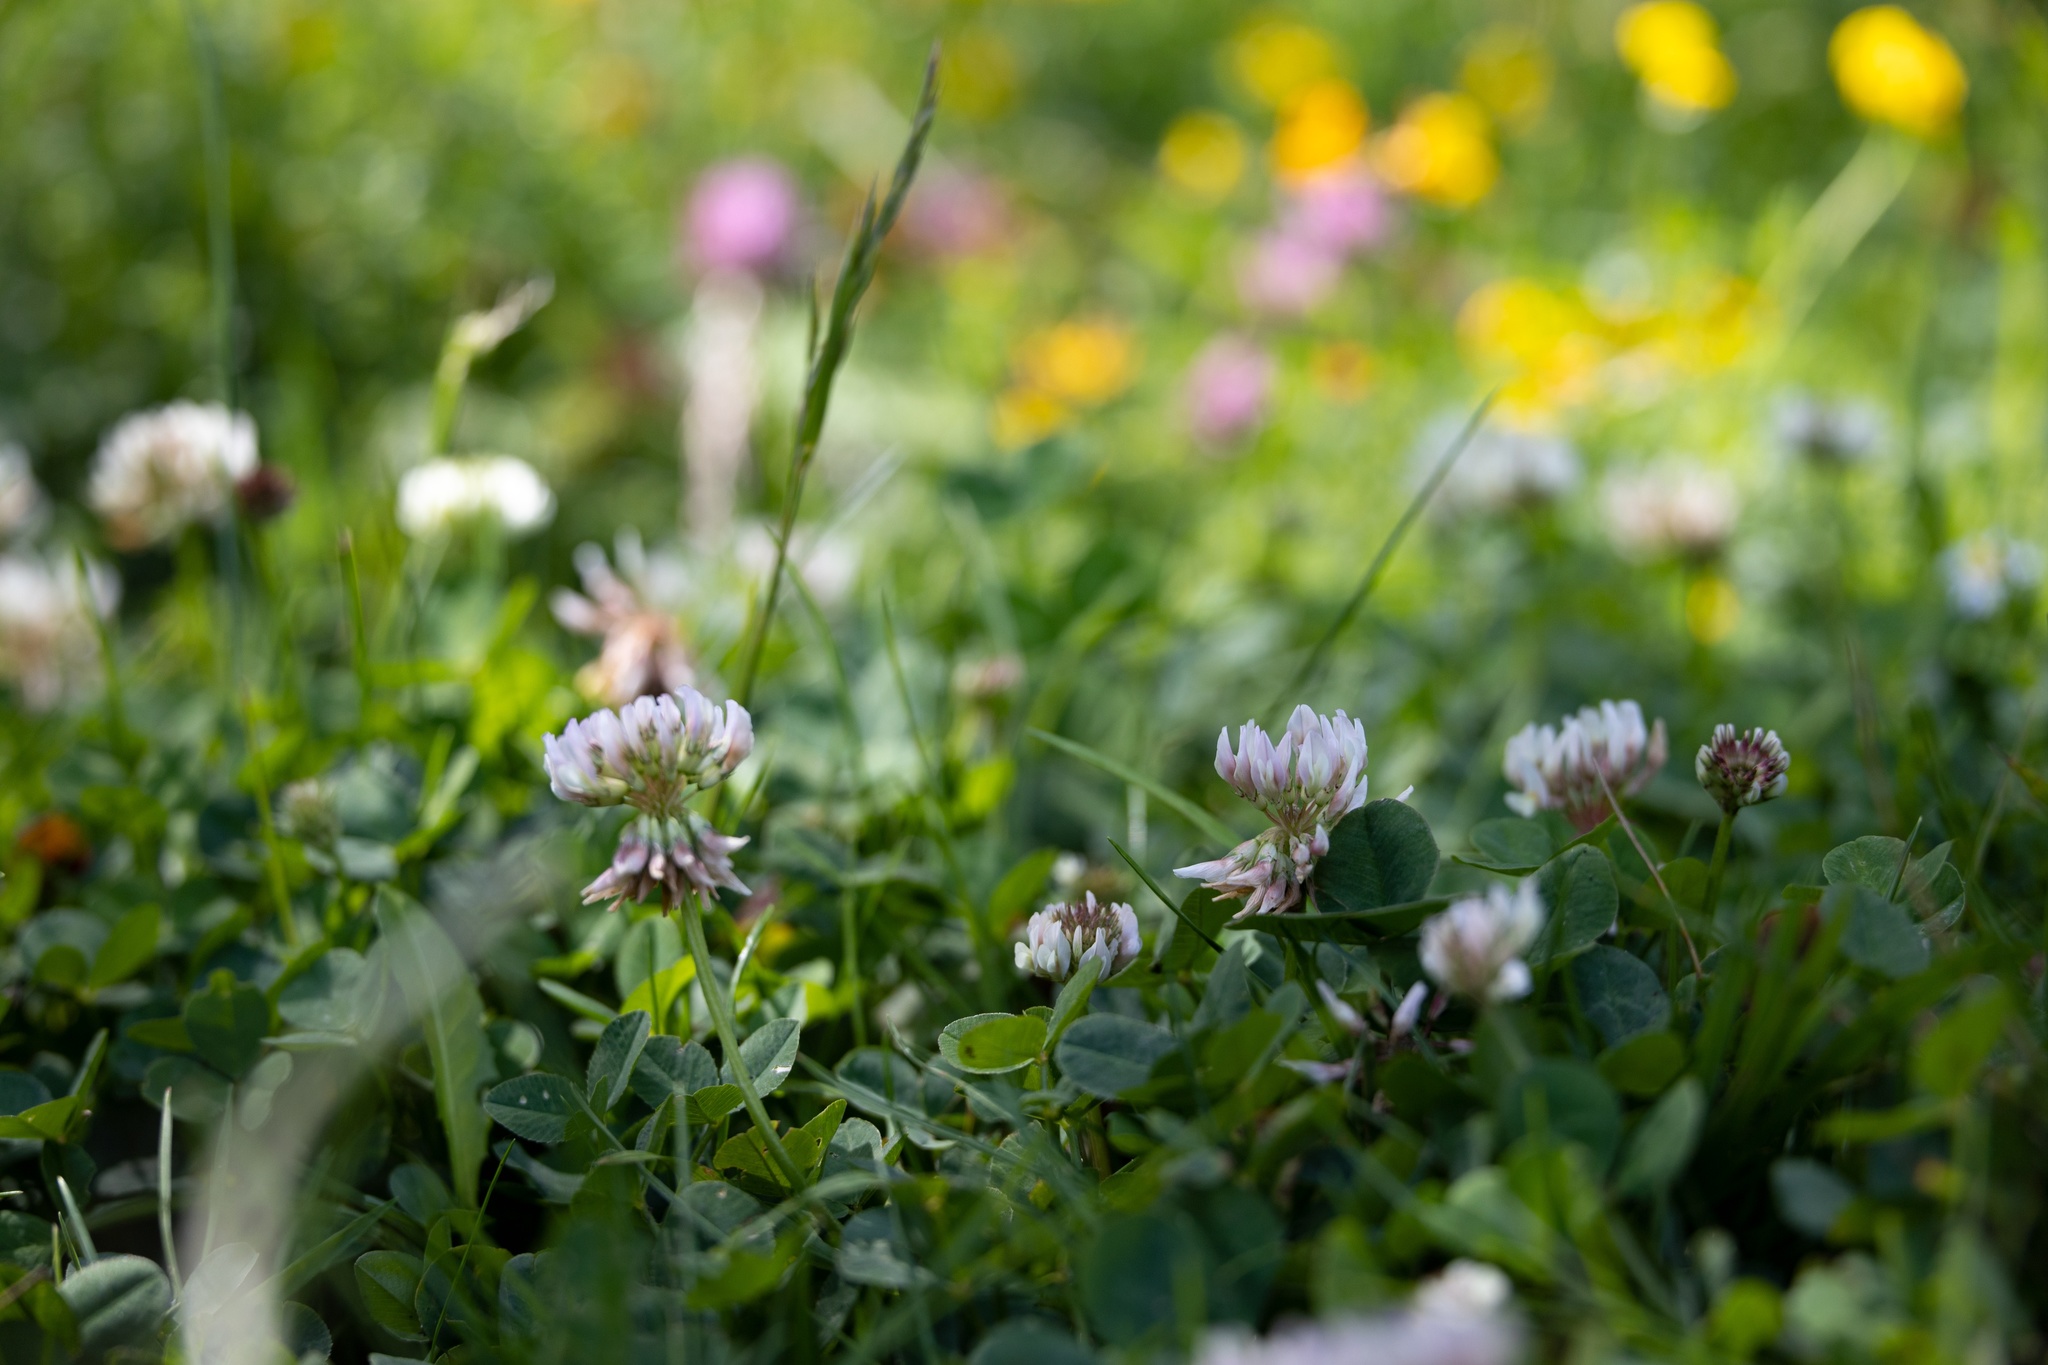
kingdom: Plantae
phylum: Tracheophyta
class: Magnoliopsida
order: Fabales
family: Fabaceae
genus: Trifolium
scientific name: Trifolium repens
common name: White clover
